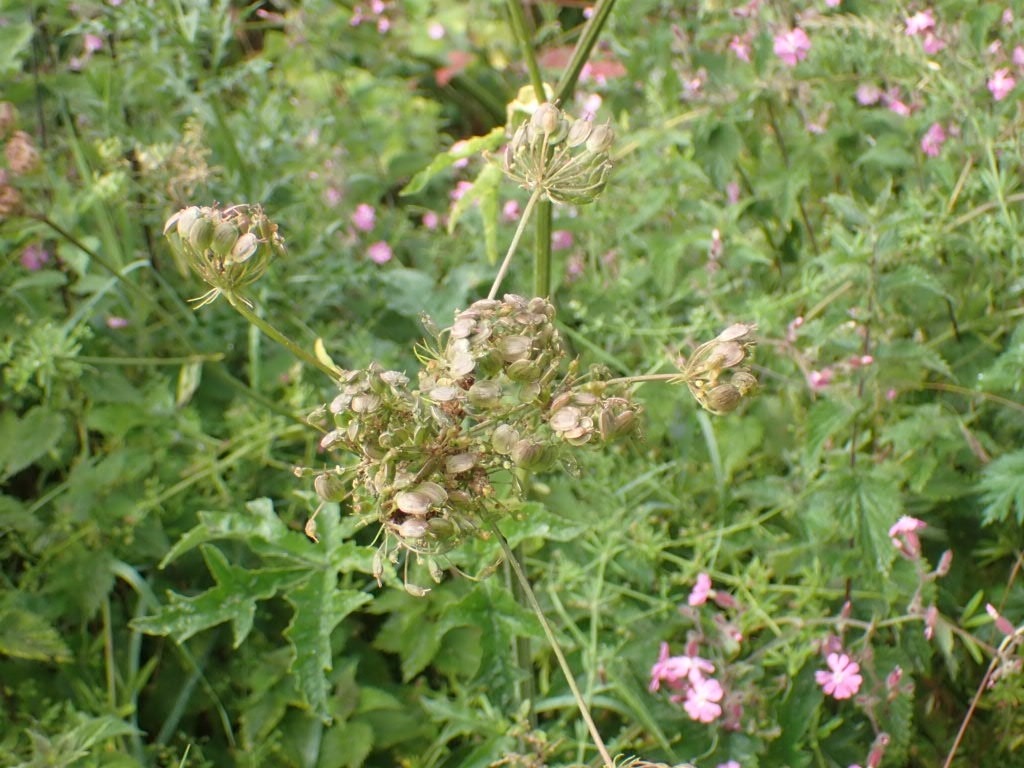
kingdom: Plantae
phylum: Tracheophyta
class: Magnoliopsida
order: Apiales
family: Apiaceae
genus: Heracleum
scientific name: Heracleum sphondylium
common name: Hogweed
